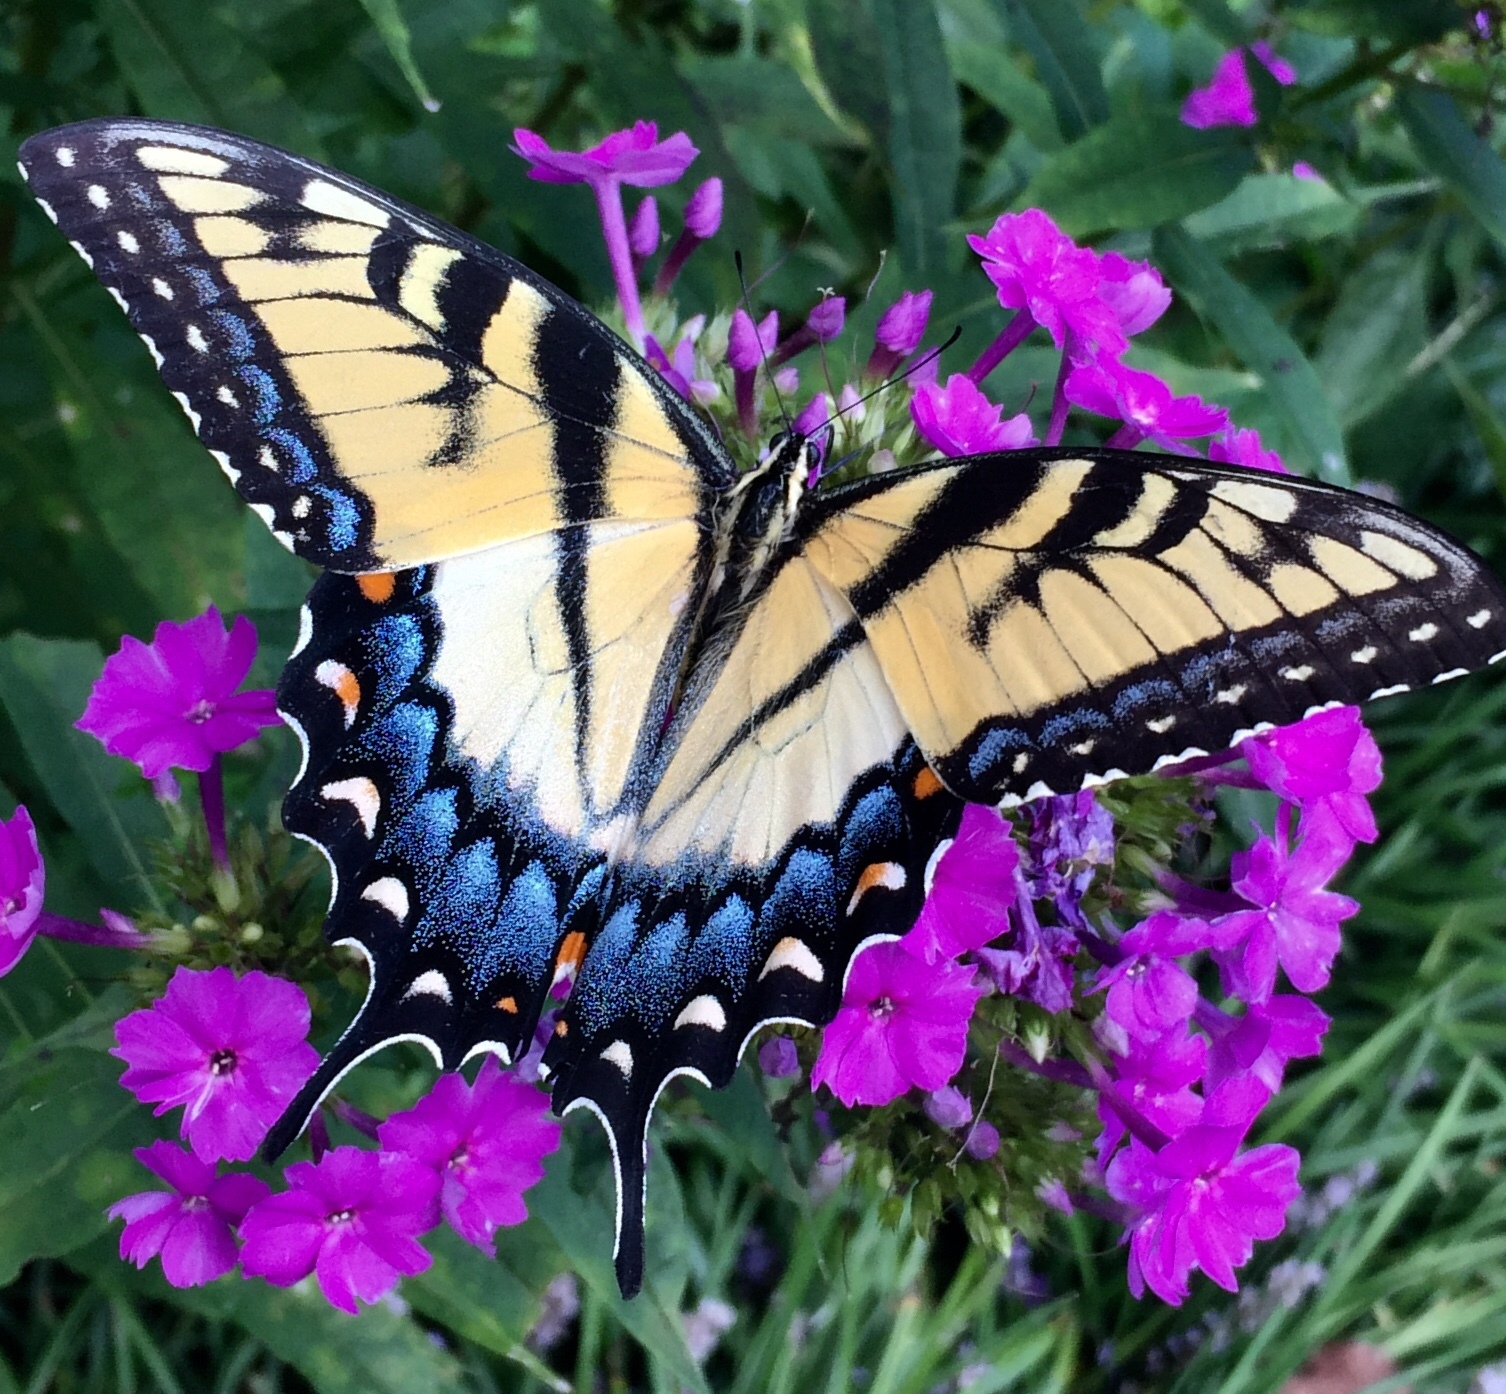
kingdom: Animalia
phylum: Arthropoda
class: Insecta
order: Lepidoptera
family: Papilionidae
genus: Papilio
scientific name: Papilio glaucus
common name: Tiger swallowtail
